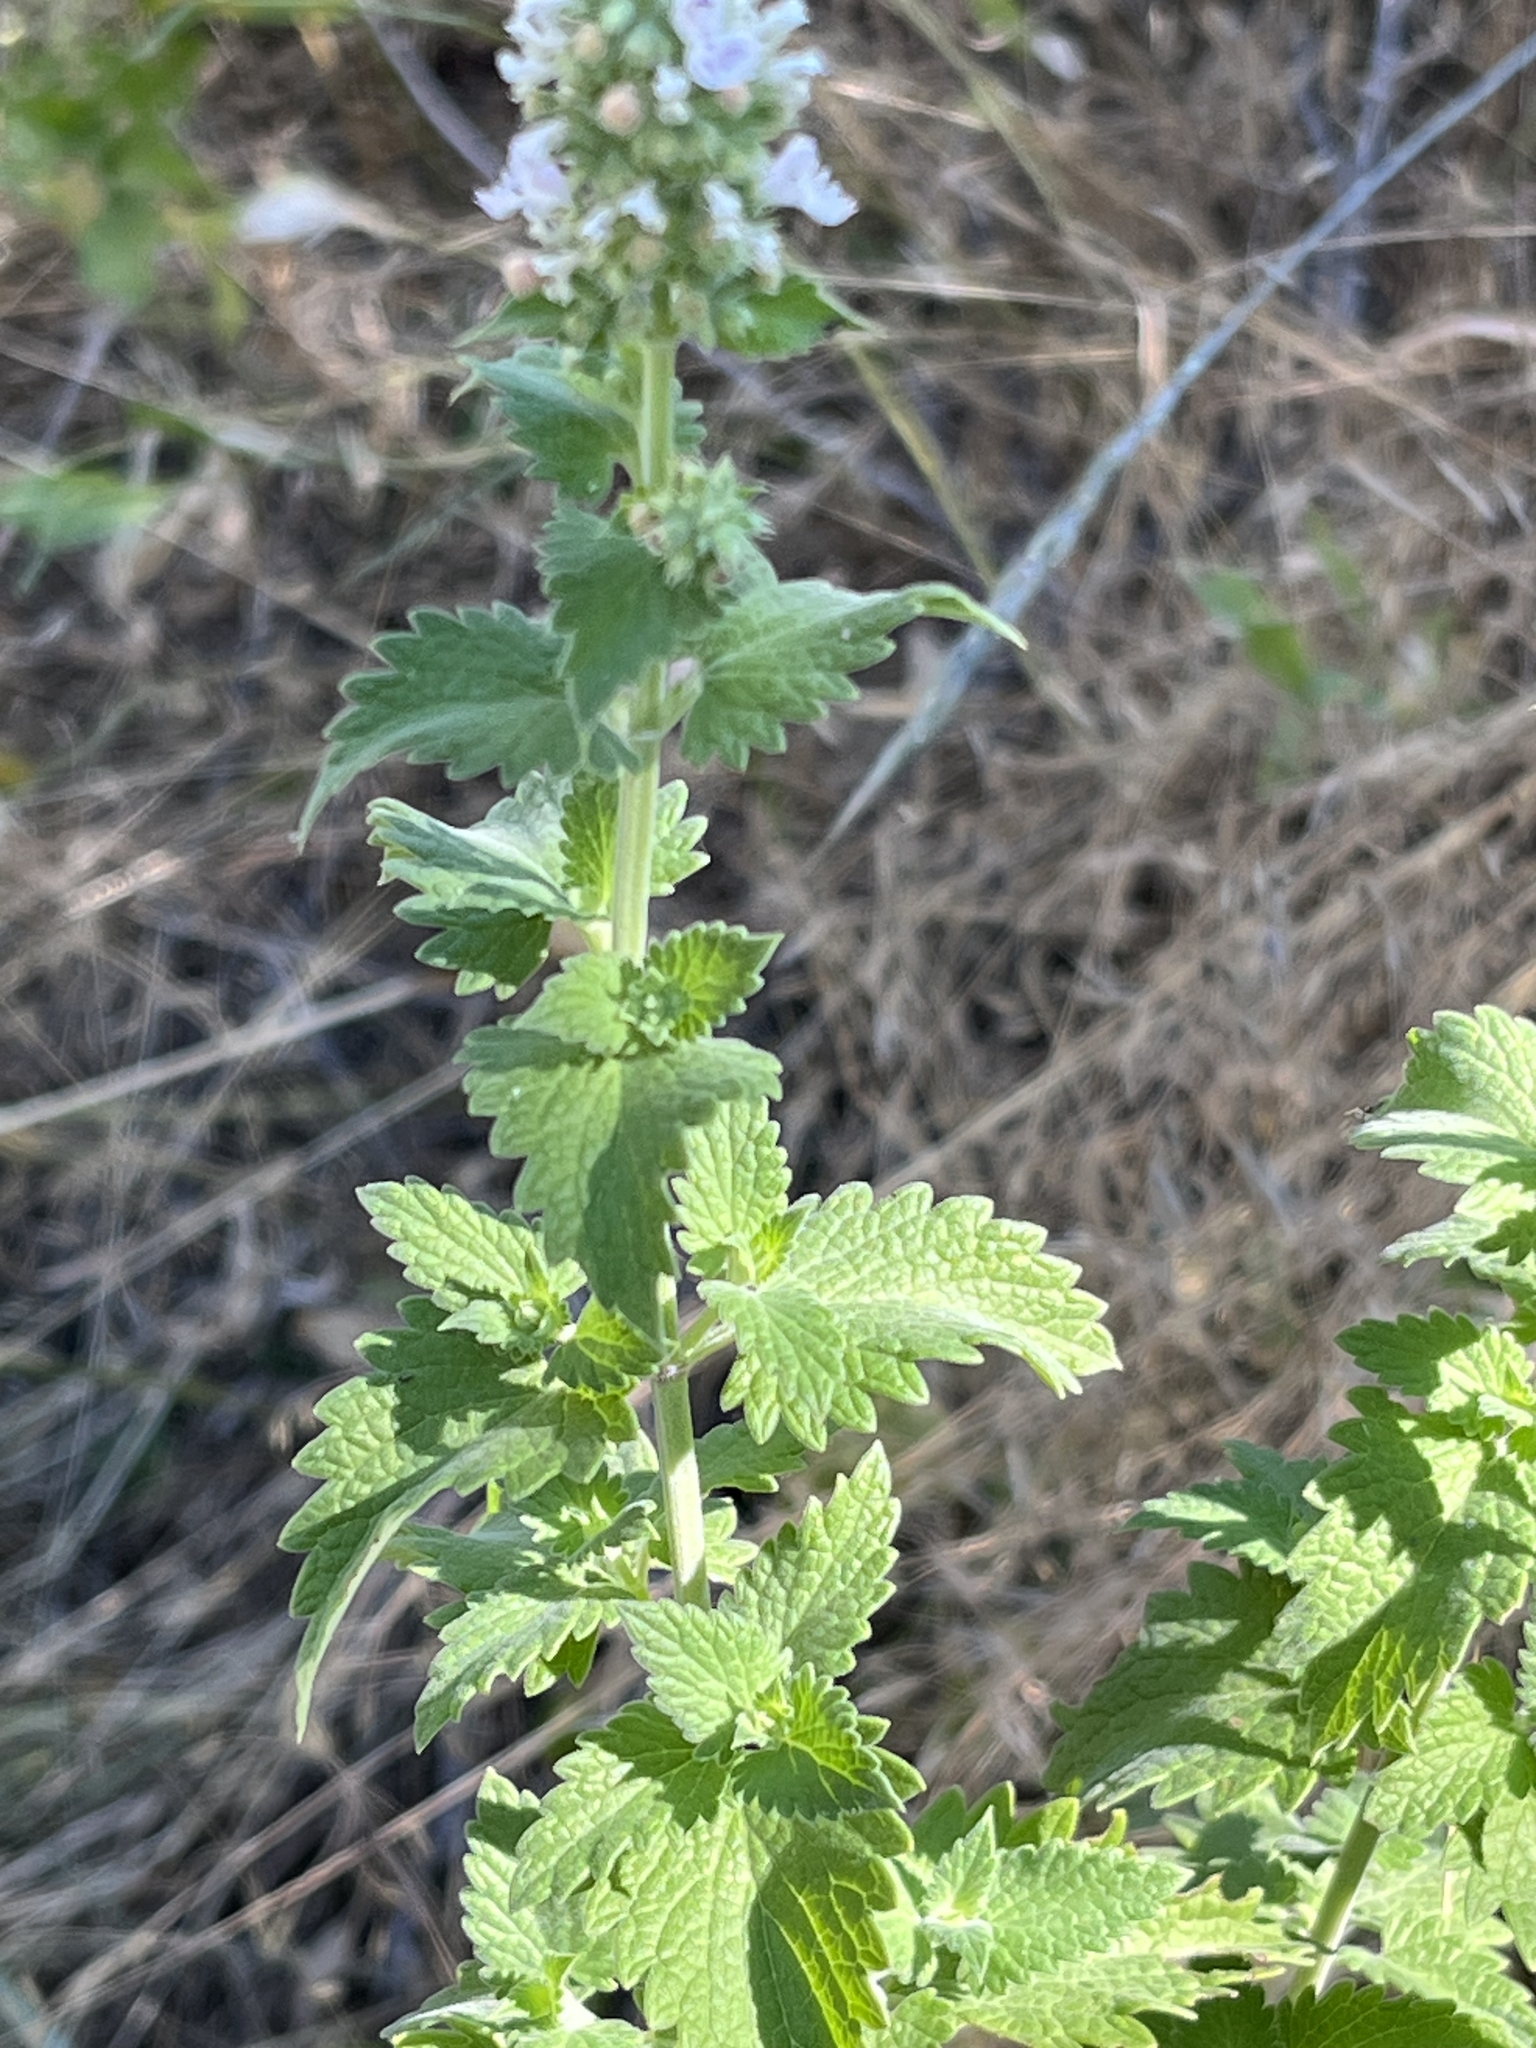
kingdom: Plantae
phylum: Tracheophyta
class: Magnoliopsida
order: Lamiales
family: Lamiaceae
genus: Nepeta
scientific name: Nepeta cataria
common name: Catnip
